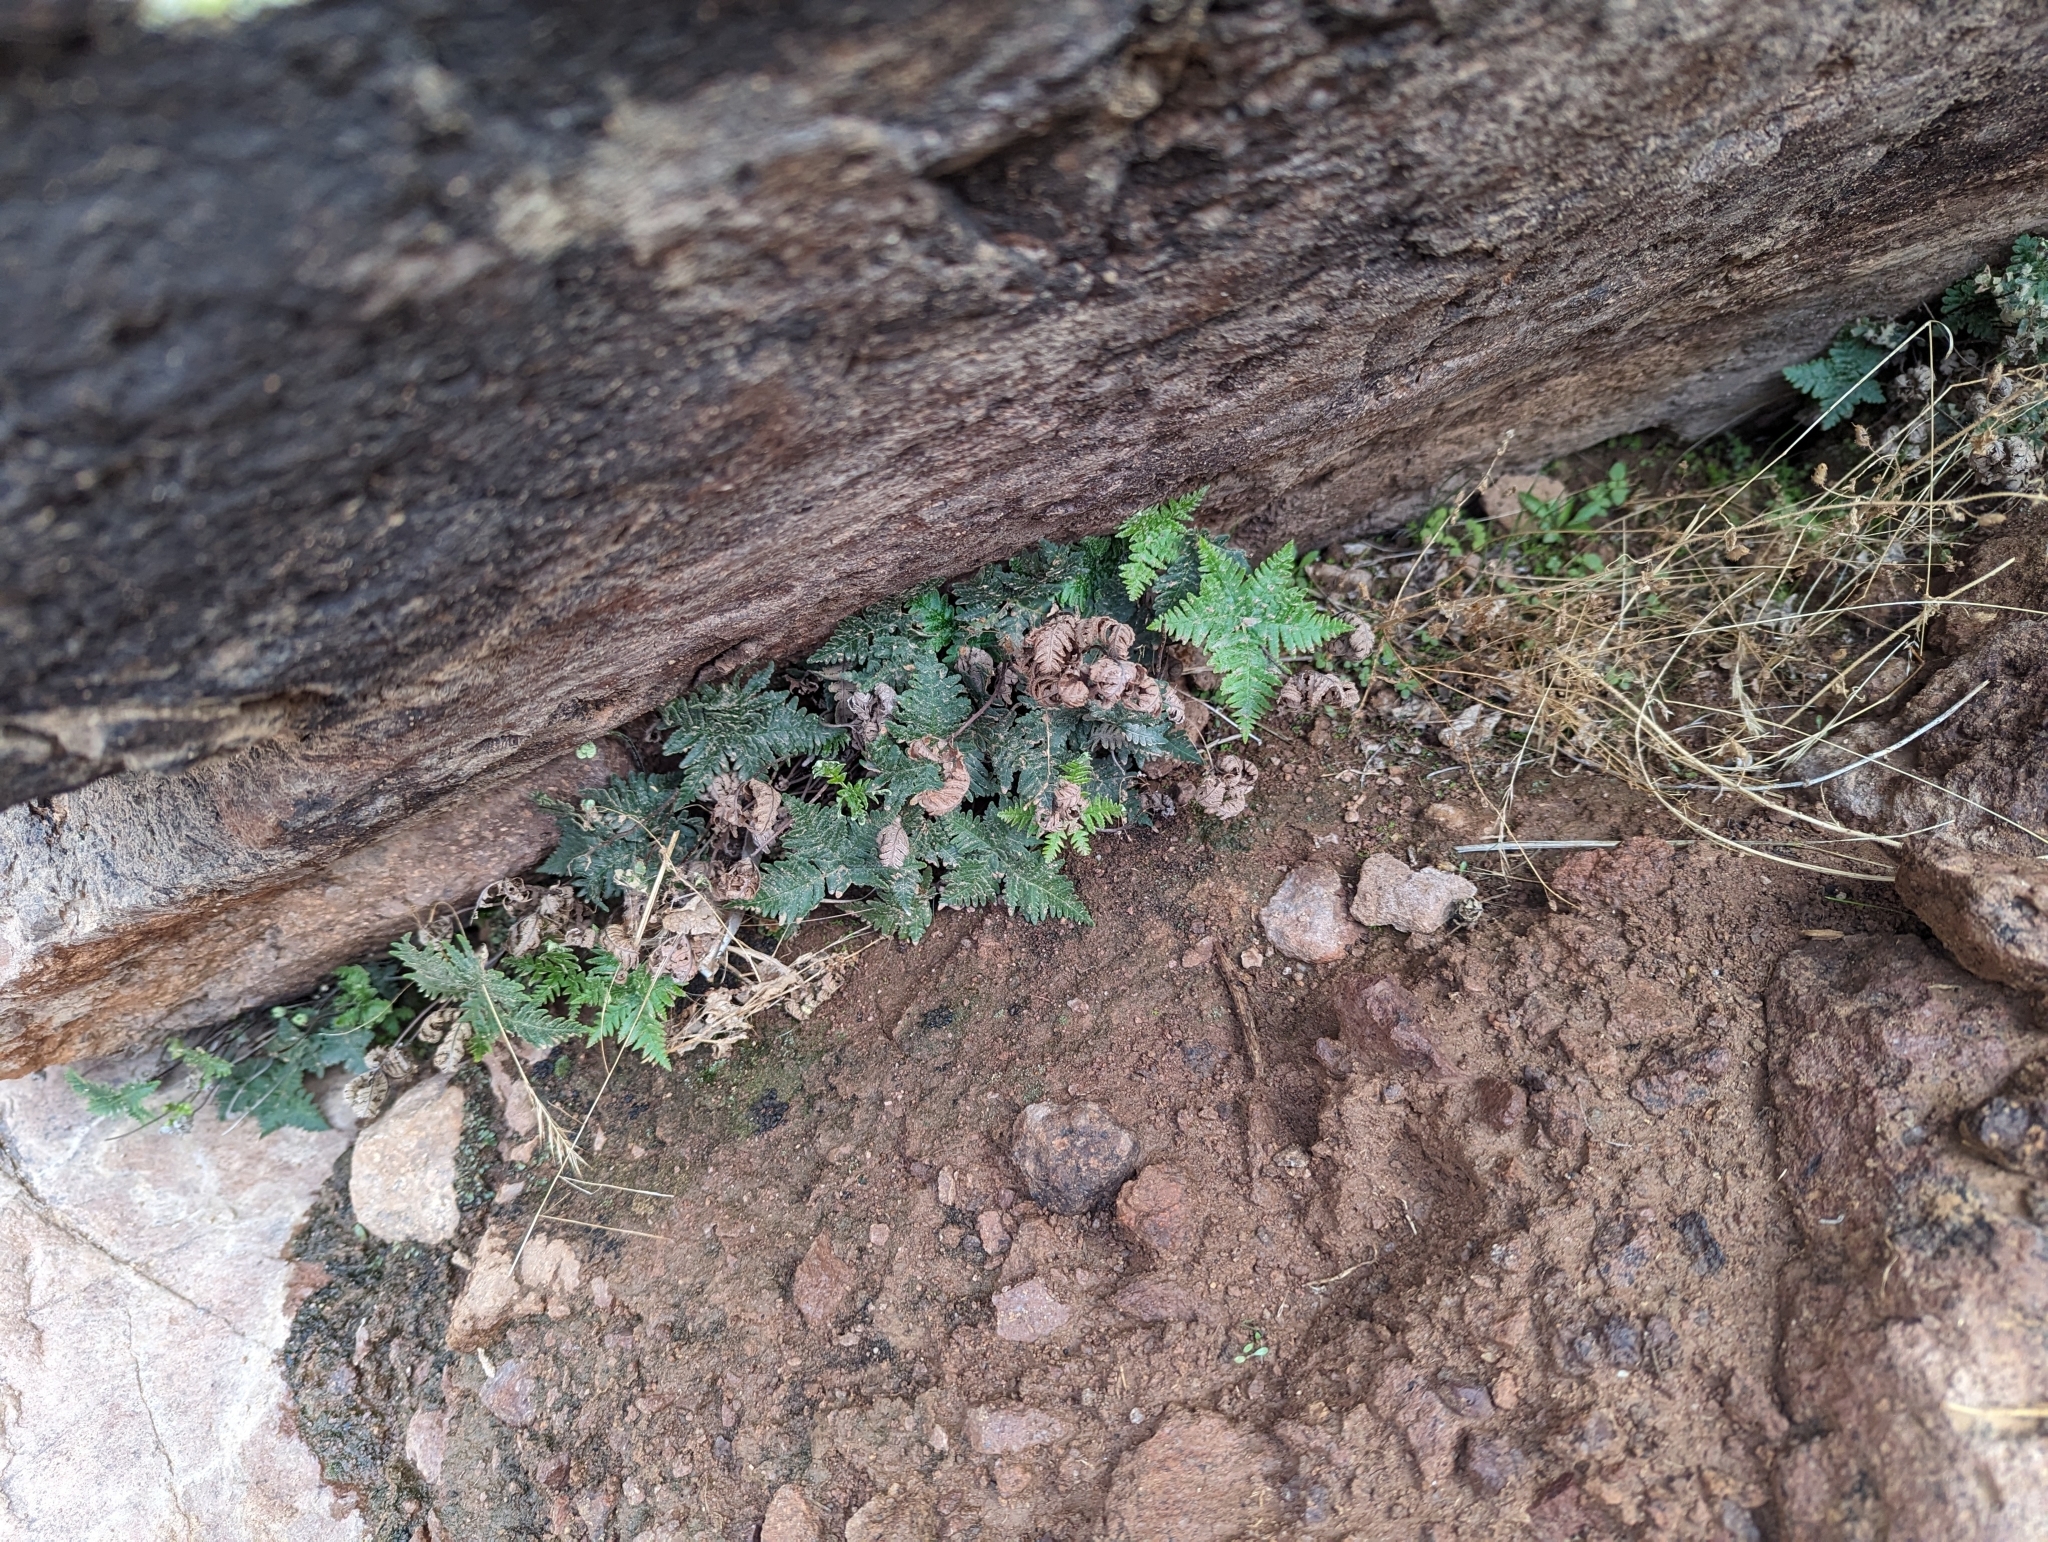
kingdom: Plantae
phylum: Tracheophyta
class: Polypodiopsida
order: Polypodiales
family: Pteridaceae
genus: Notholaena
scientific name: Notholaena standleyi
